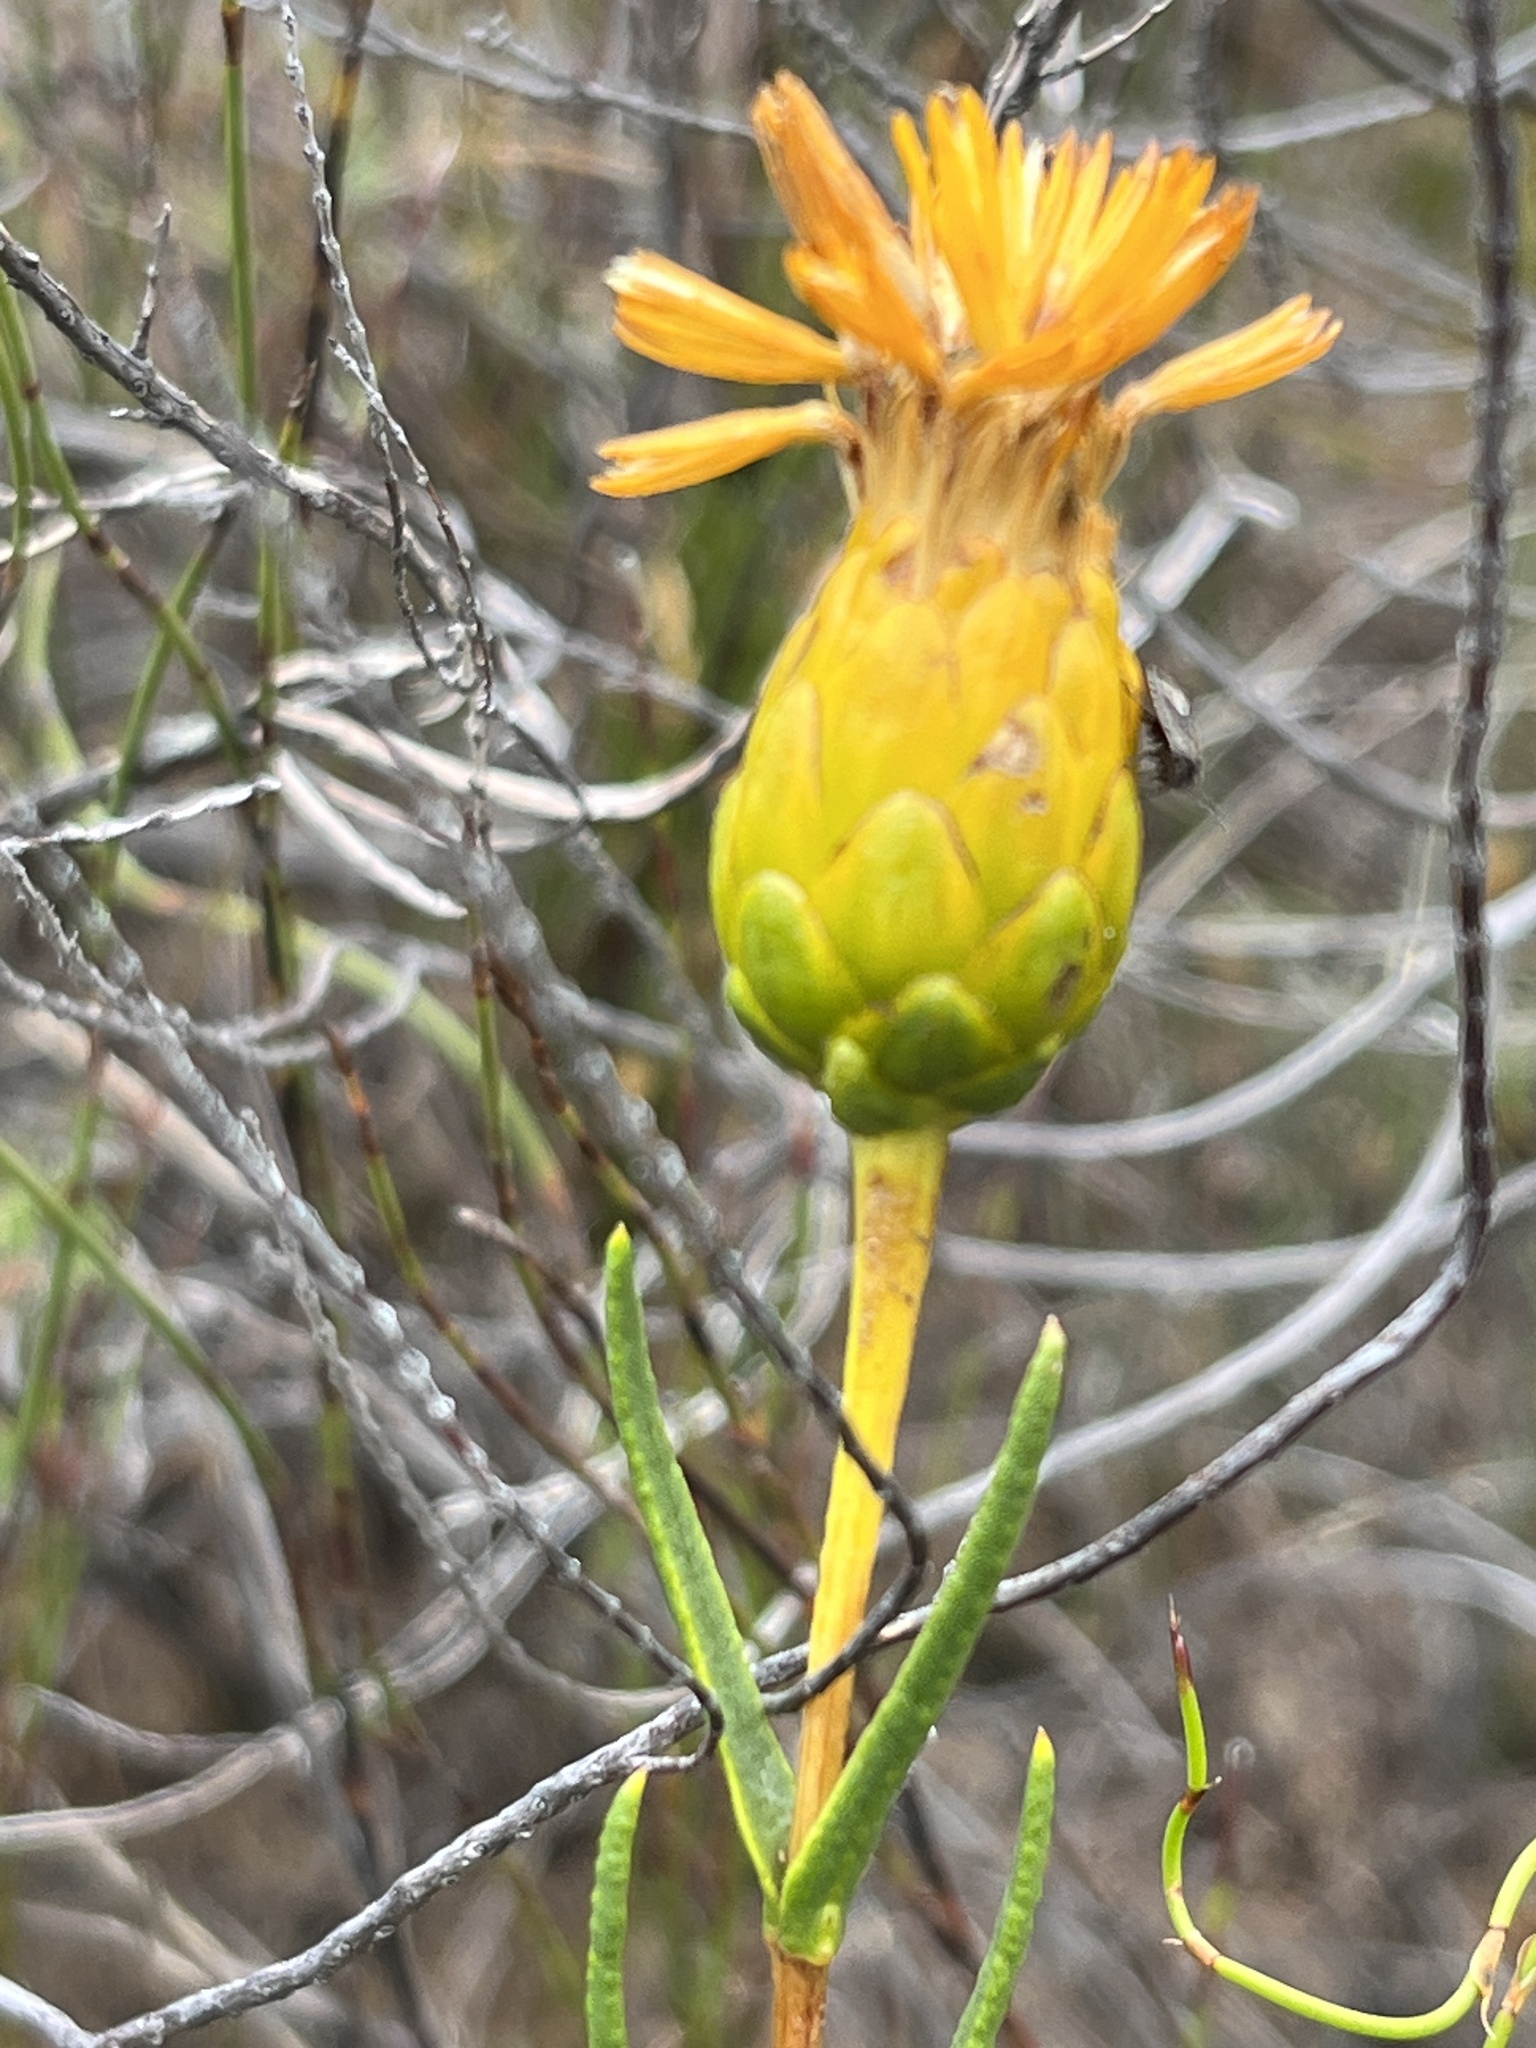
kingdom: Plantae
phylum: Tracheophyta
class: Magnoliopsida
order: Asterales
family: Asteraceae
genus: Pteronia
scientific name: Pteronia tenuifolia
